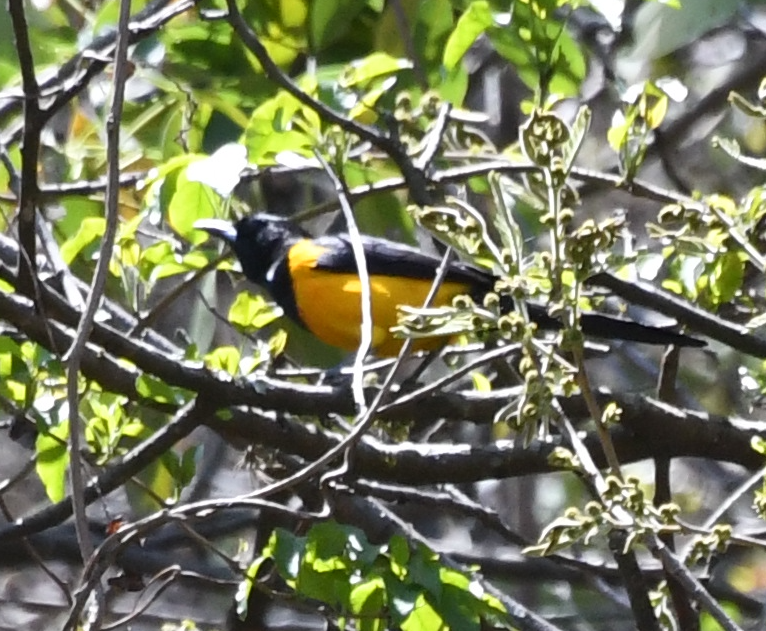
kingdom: Animalia
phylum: Chordata
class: Aves
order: Passeriformes
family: Icteridae
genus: Icterus
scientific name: Icterus wagleri
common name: Black-vented oriole
